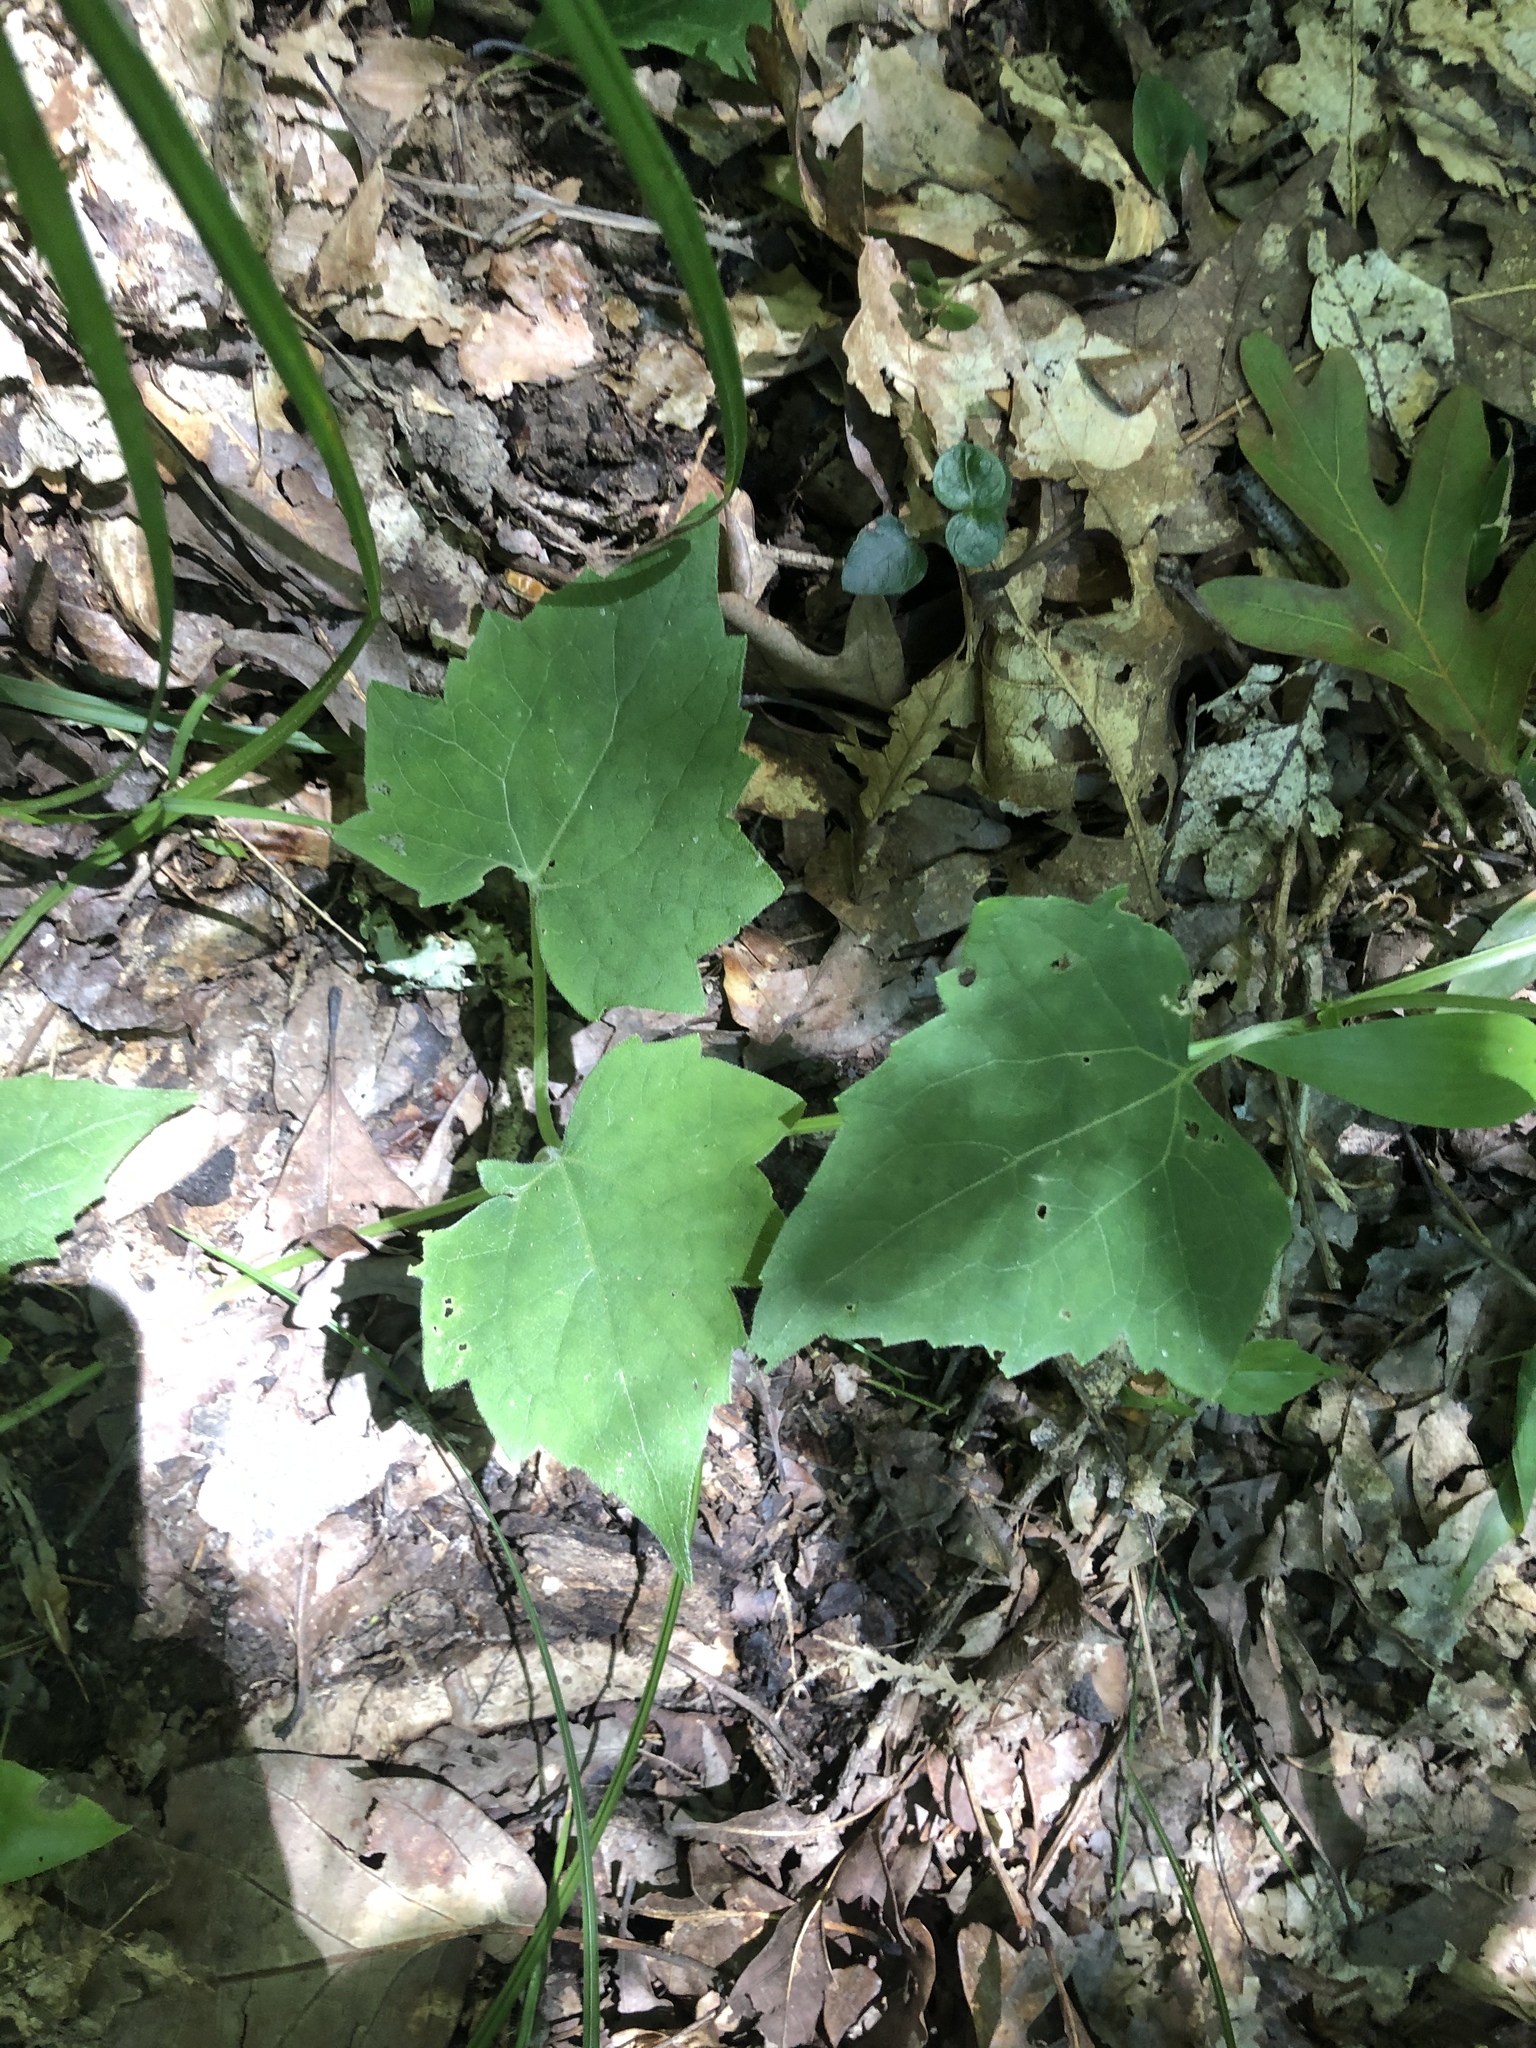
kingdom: Plantae
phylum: Tracheophyta
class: Magnoliopsida
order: Asterales
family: Asteraceae
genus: Mikania
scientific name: Mikania cordifolia
